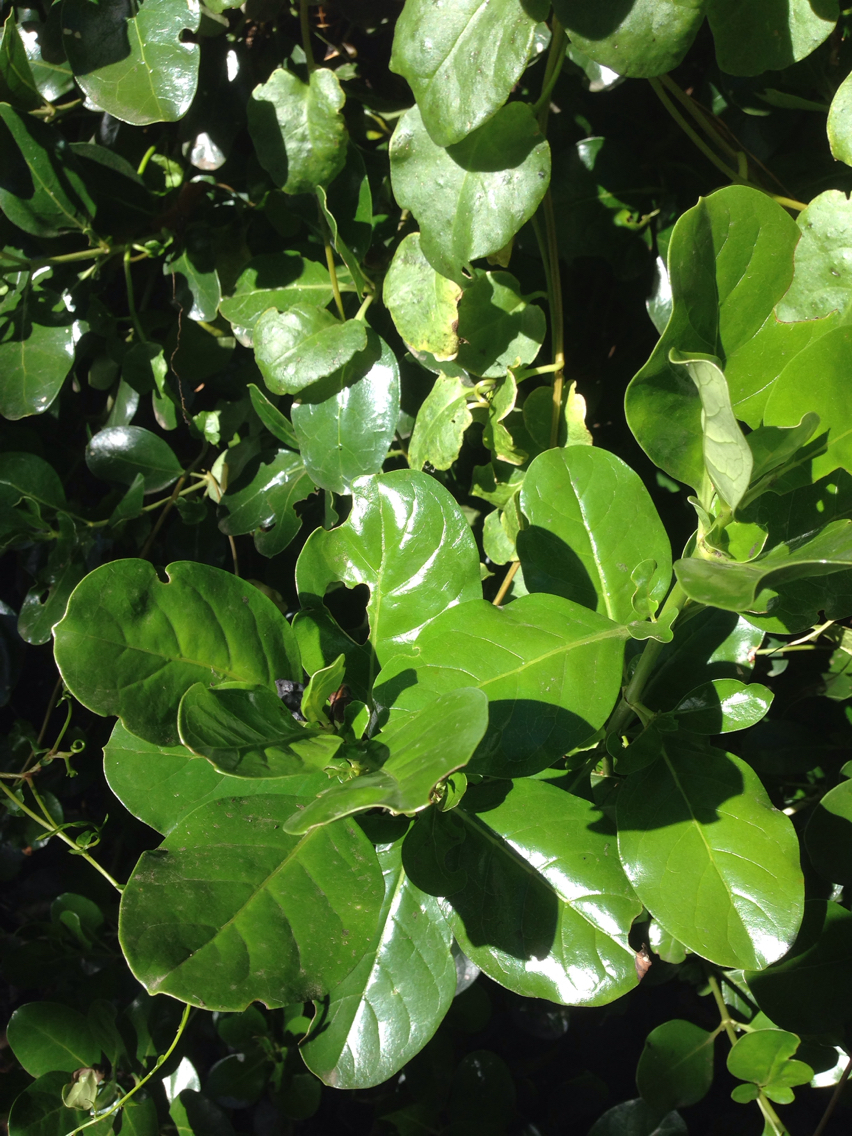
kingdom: Plantae
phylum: Tracheophyta
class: Magnoliopsida
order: Gentianales
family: Rubiaceae
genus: Coprosma
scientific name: Coprosma repens
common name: Tree bedstraw
